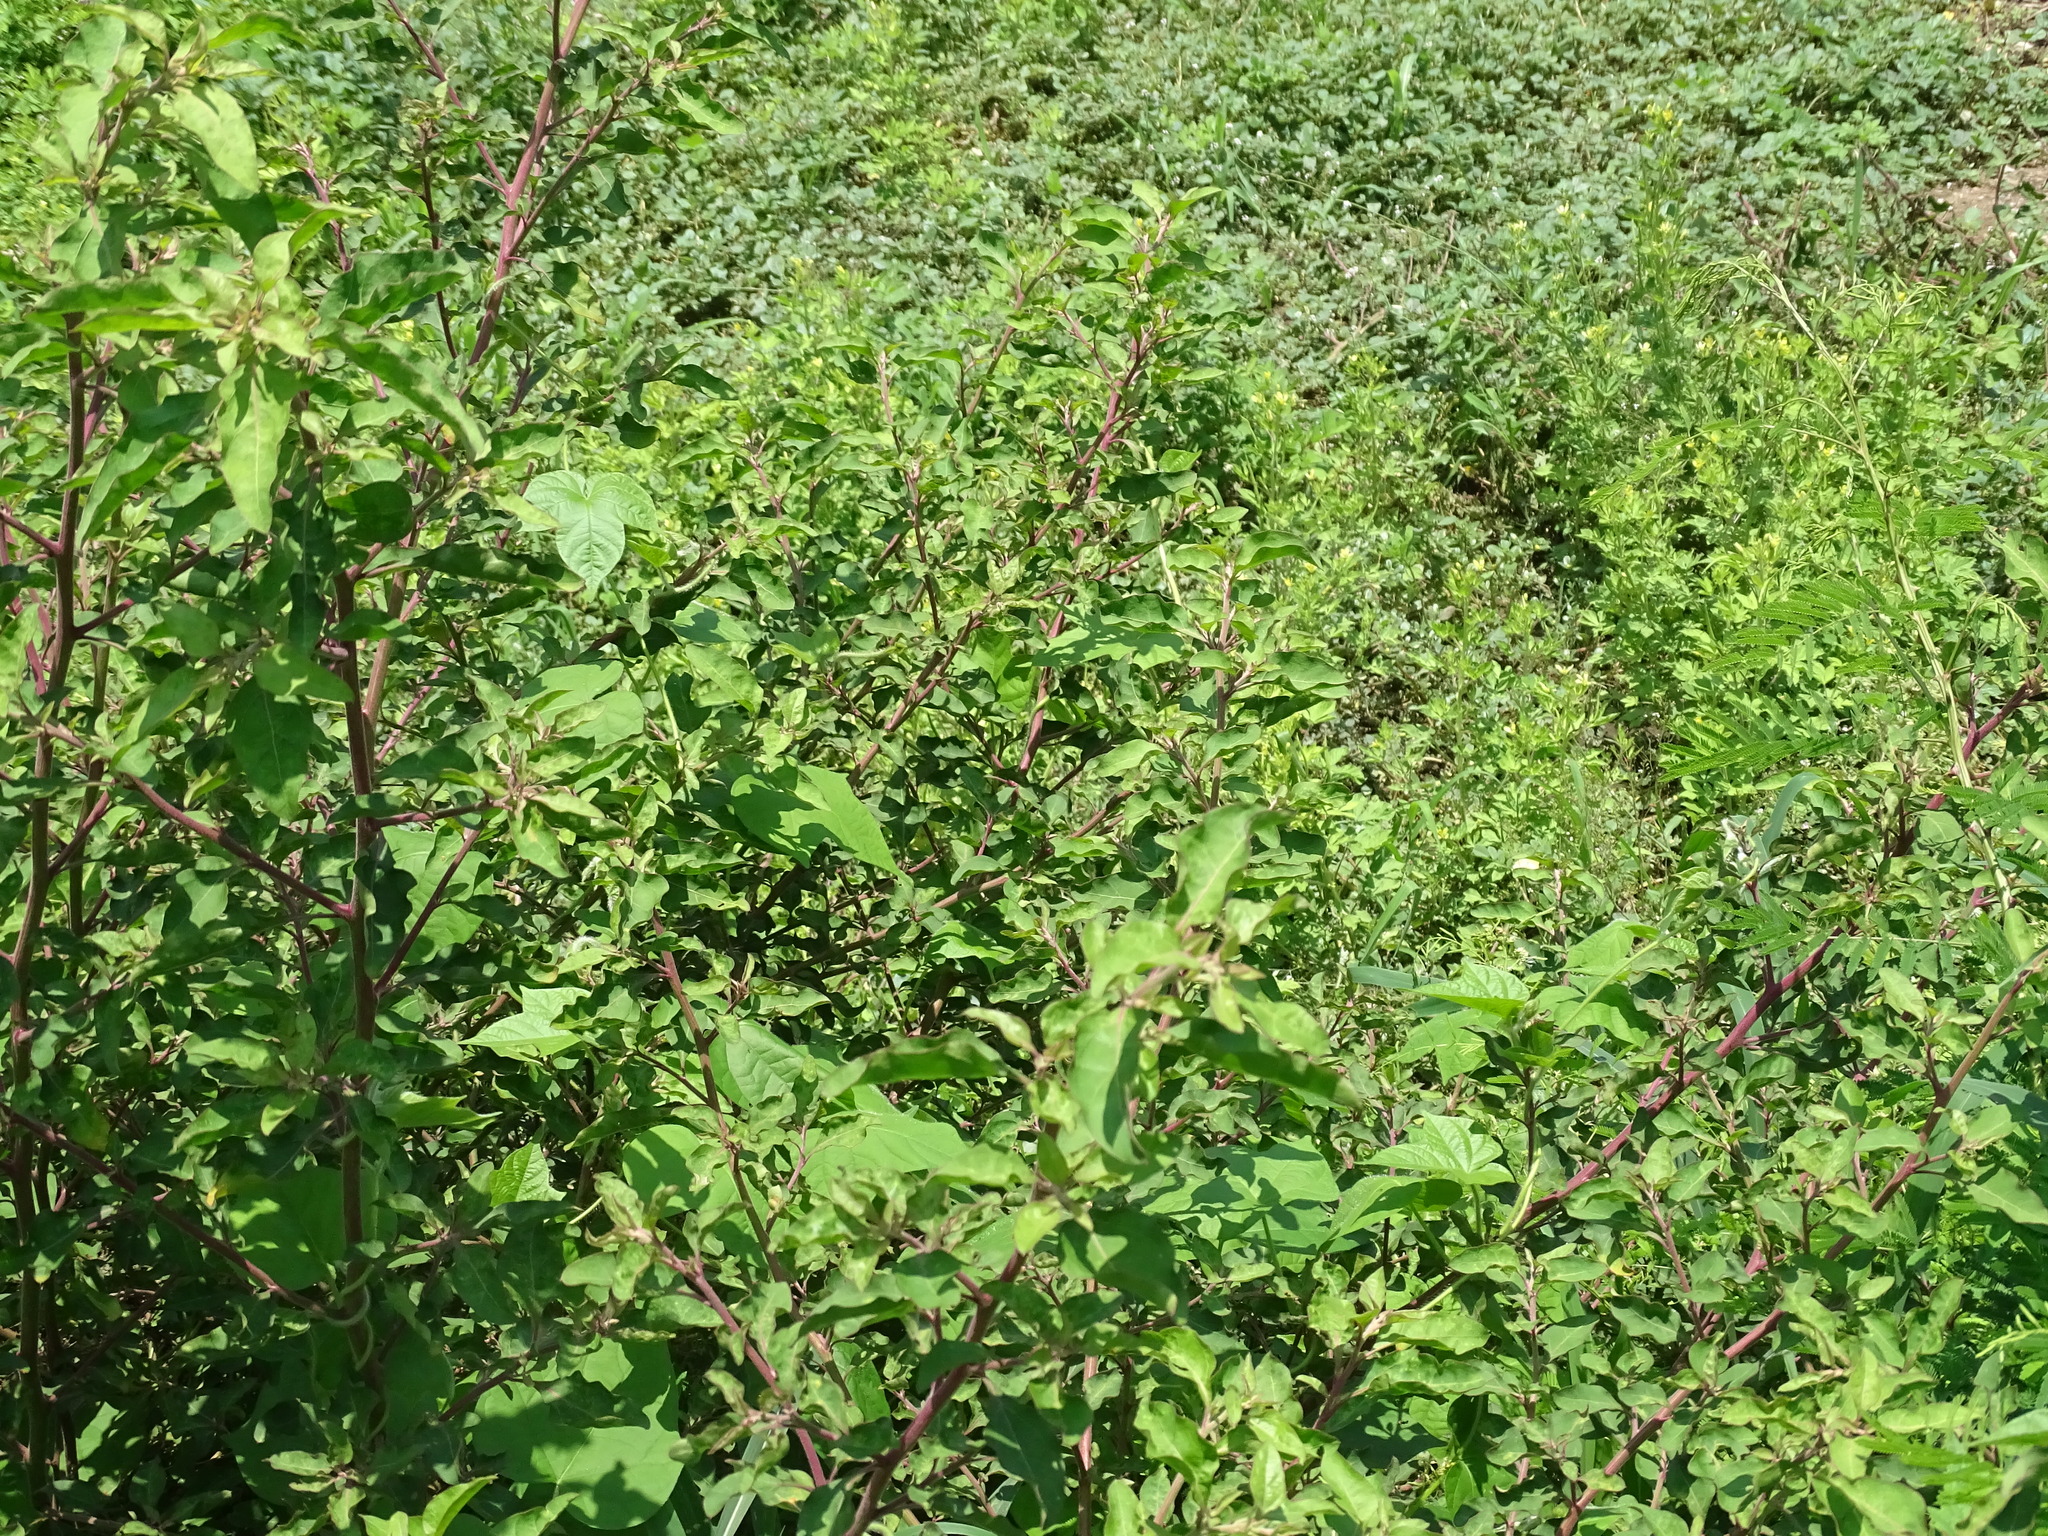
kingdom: Plantae
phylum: Tracheophyta
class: Magnoliopsida
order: Caryophyllales
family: Nyctaginaceae
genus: Salpianthus
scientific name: Salpianthus arenarius
